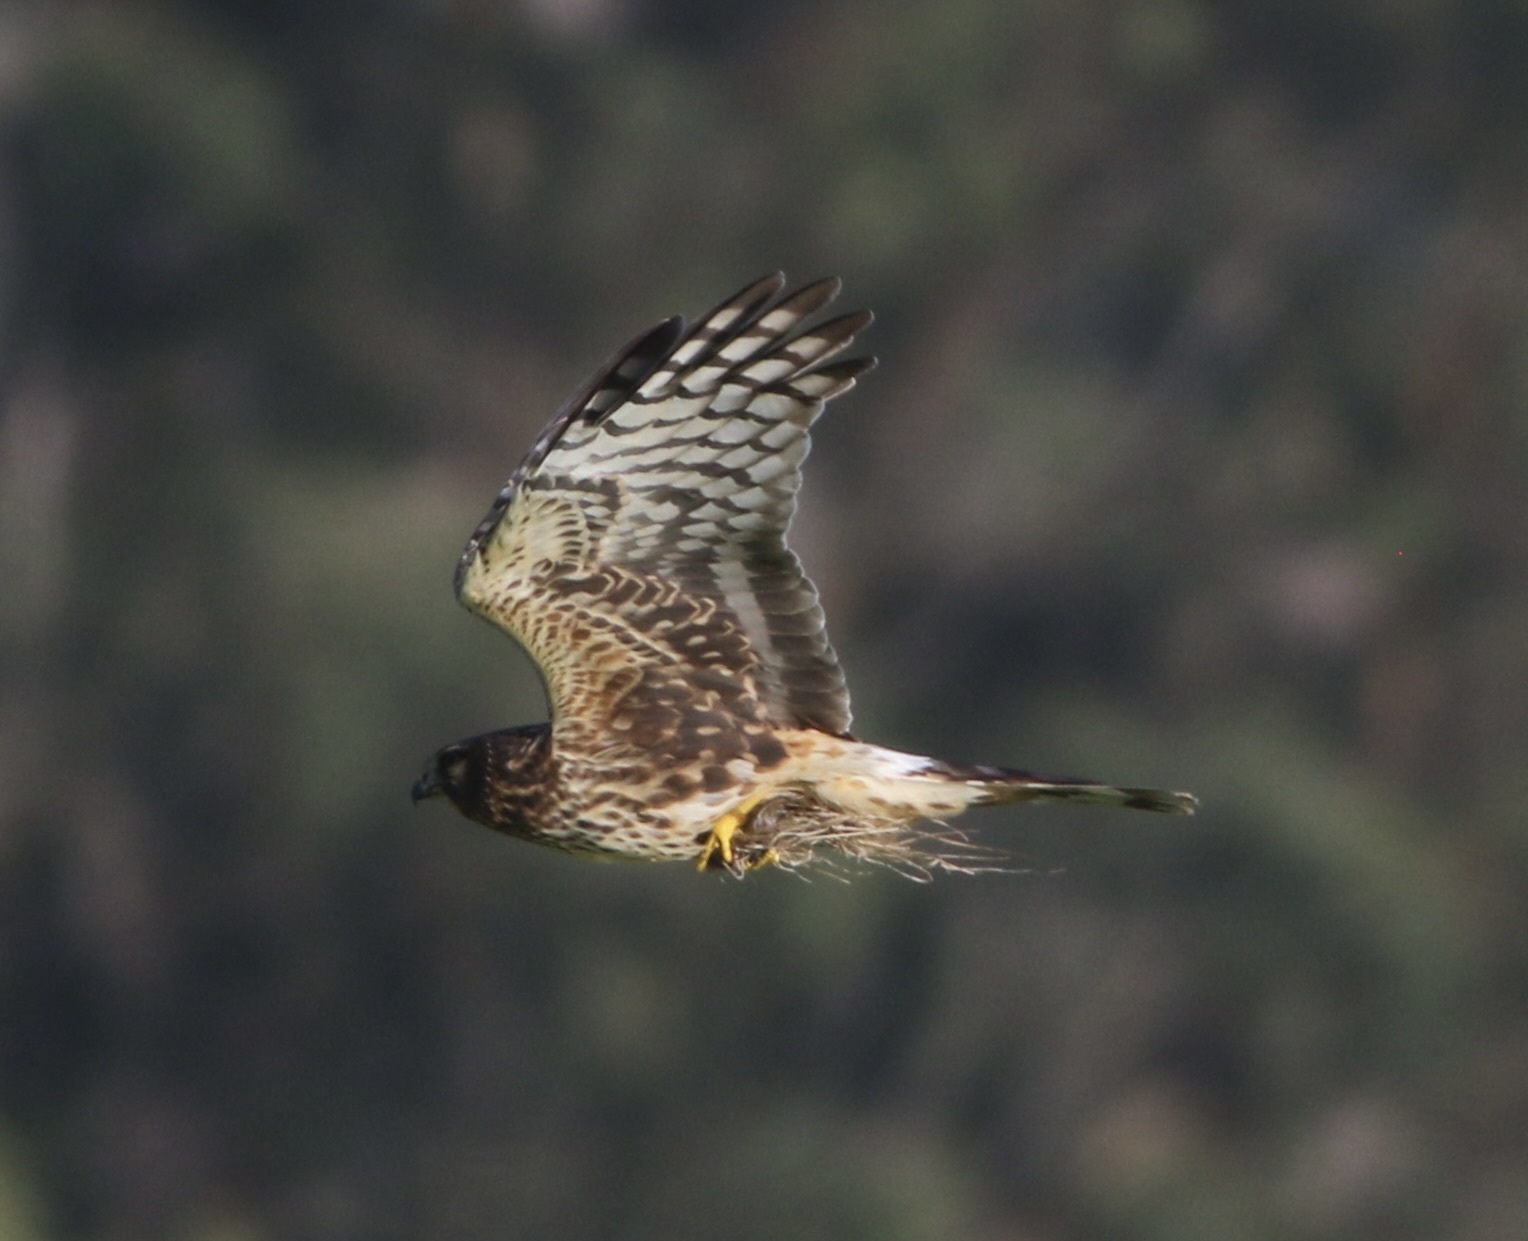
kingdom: Animalia
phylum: Chordata
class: Aves
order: Accipitriformes
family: Accipitridae
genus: Circus
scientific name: Circus cyaneus
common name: Hen harrier
